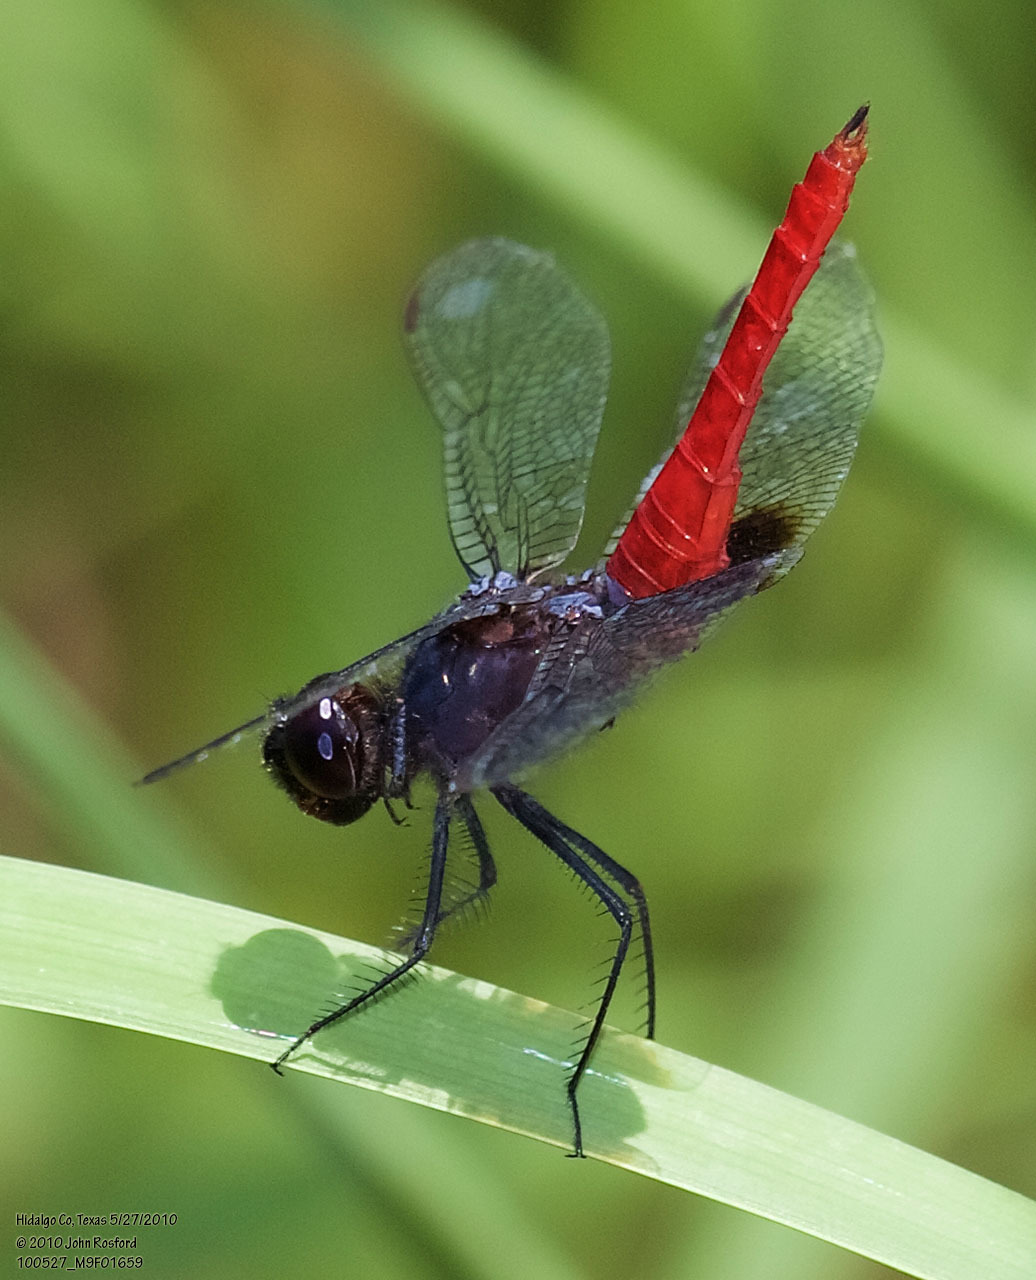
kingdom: Animalia
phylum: Arthropoda
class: Insecta
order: Odonata
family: Libellulidae
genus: Planiplax
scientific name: Planiplax sanguiniventris
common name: Mexican scarlet-tail
